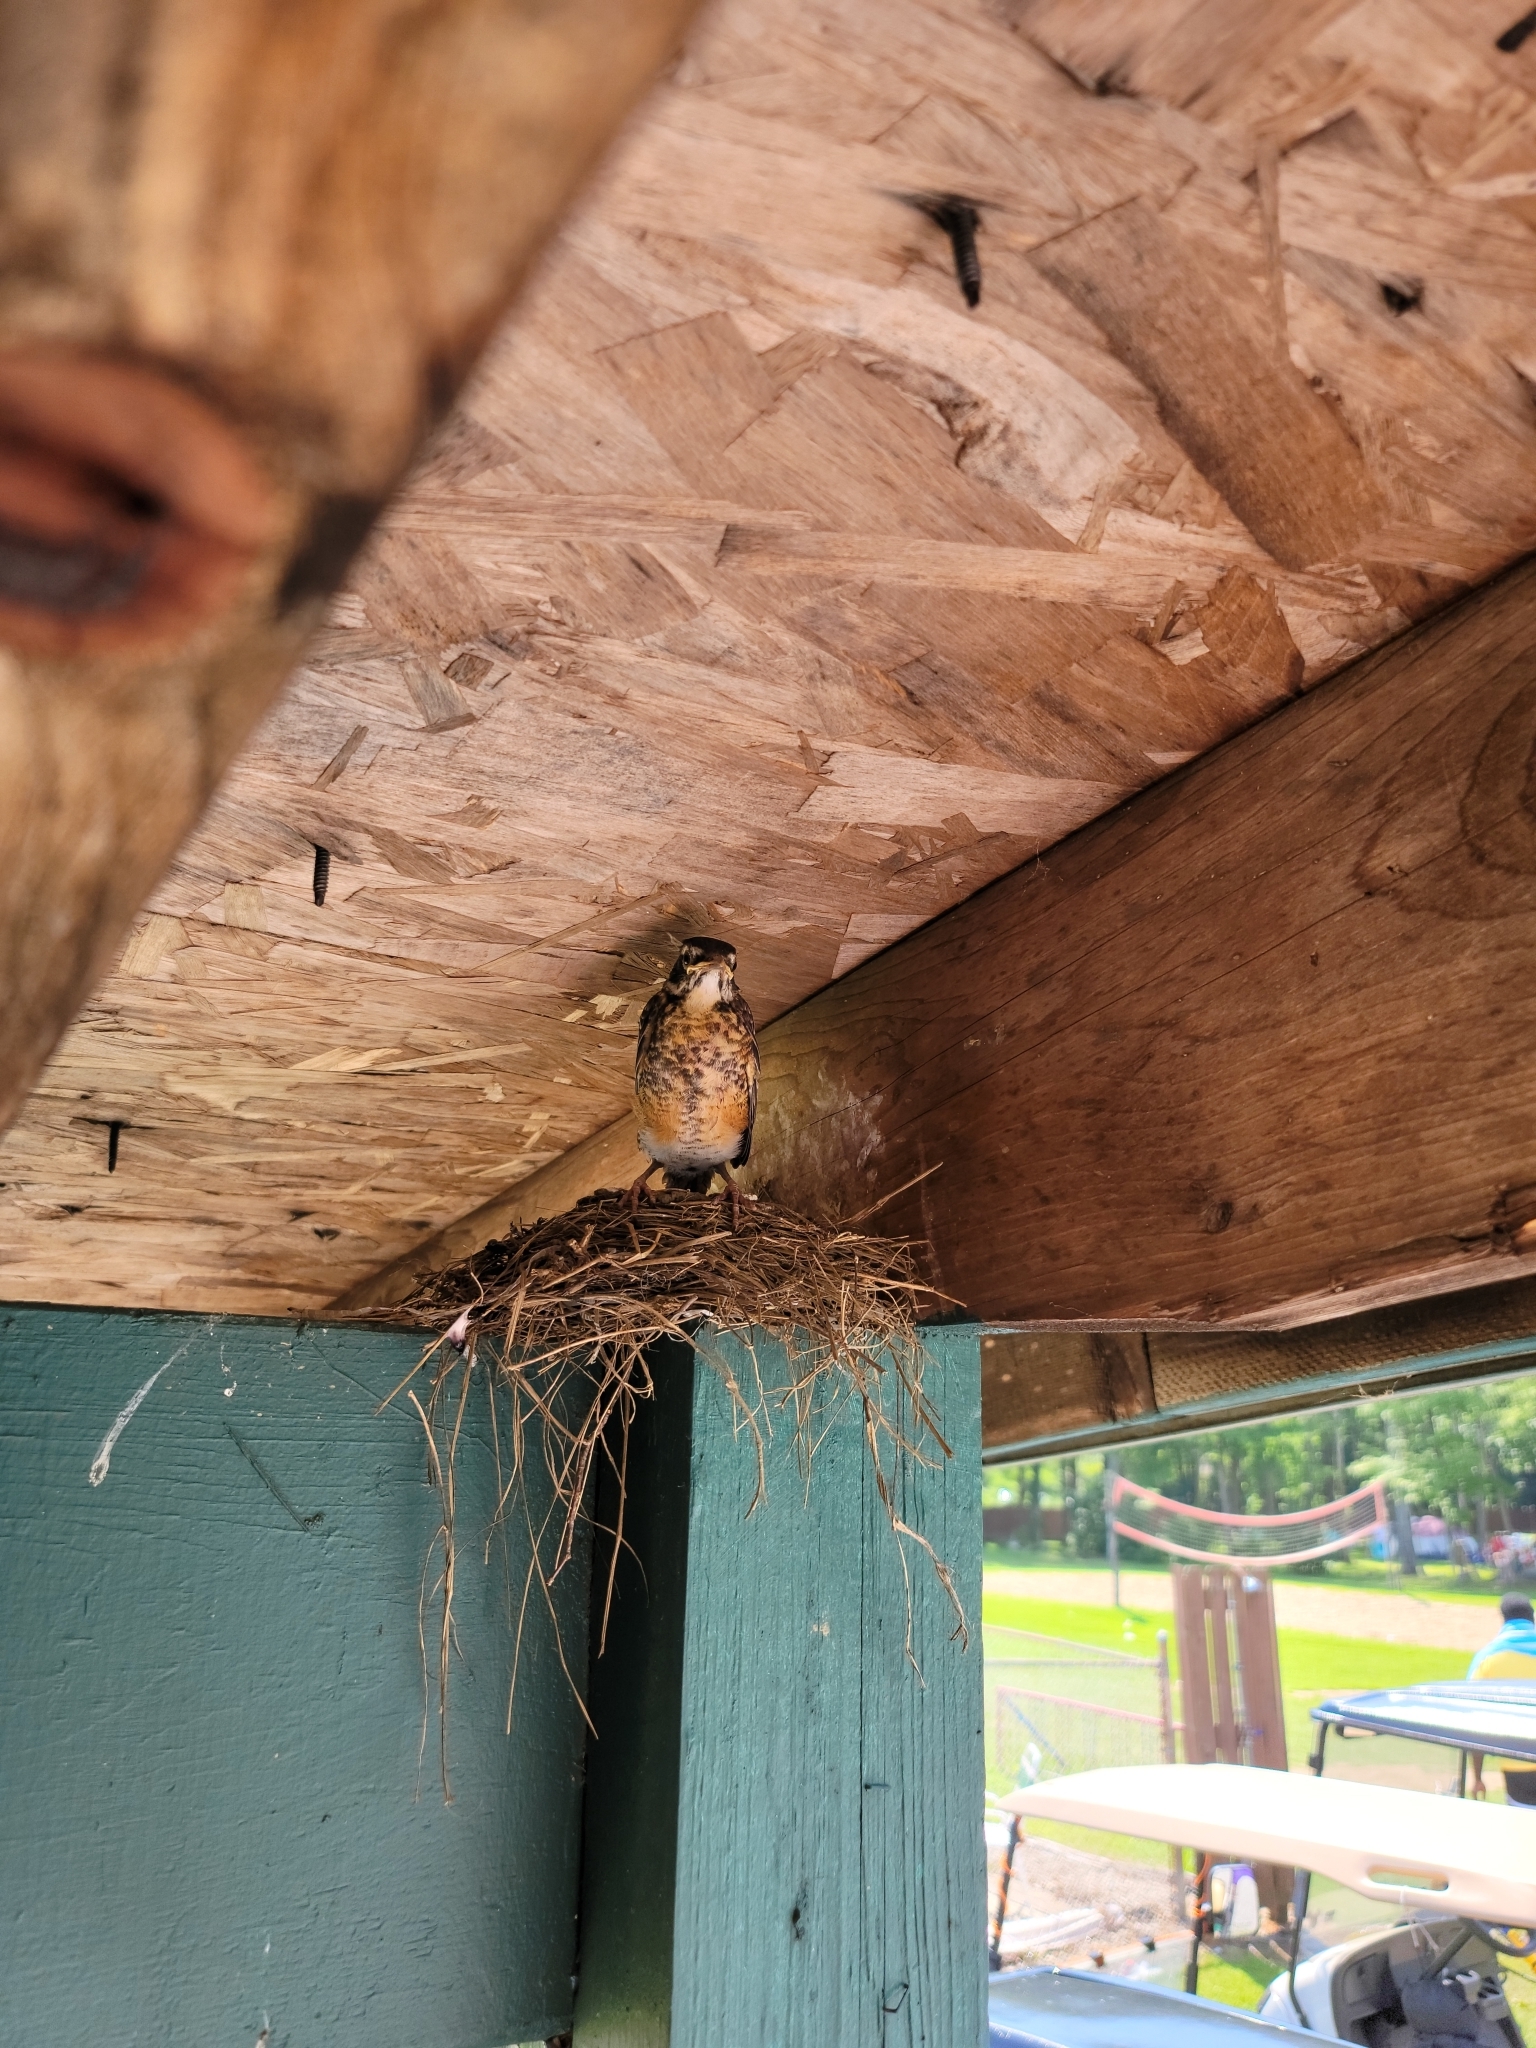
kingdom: Animalia
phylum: Chordata
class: Aves
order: Passeriformes
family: Turdidae
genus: Turdus
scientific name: Turdus migratorius
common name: American robin
